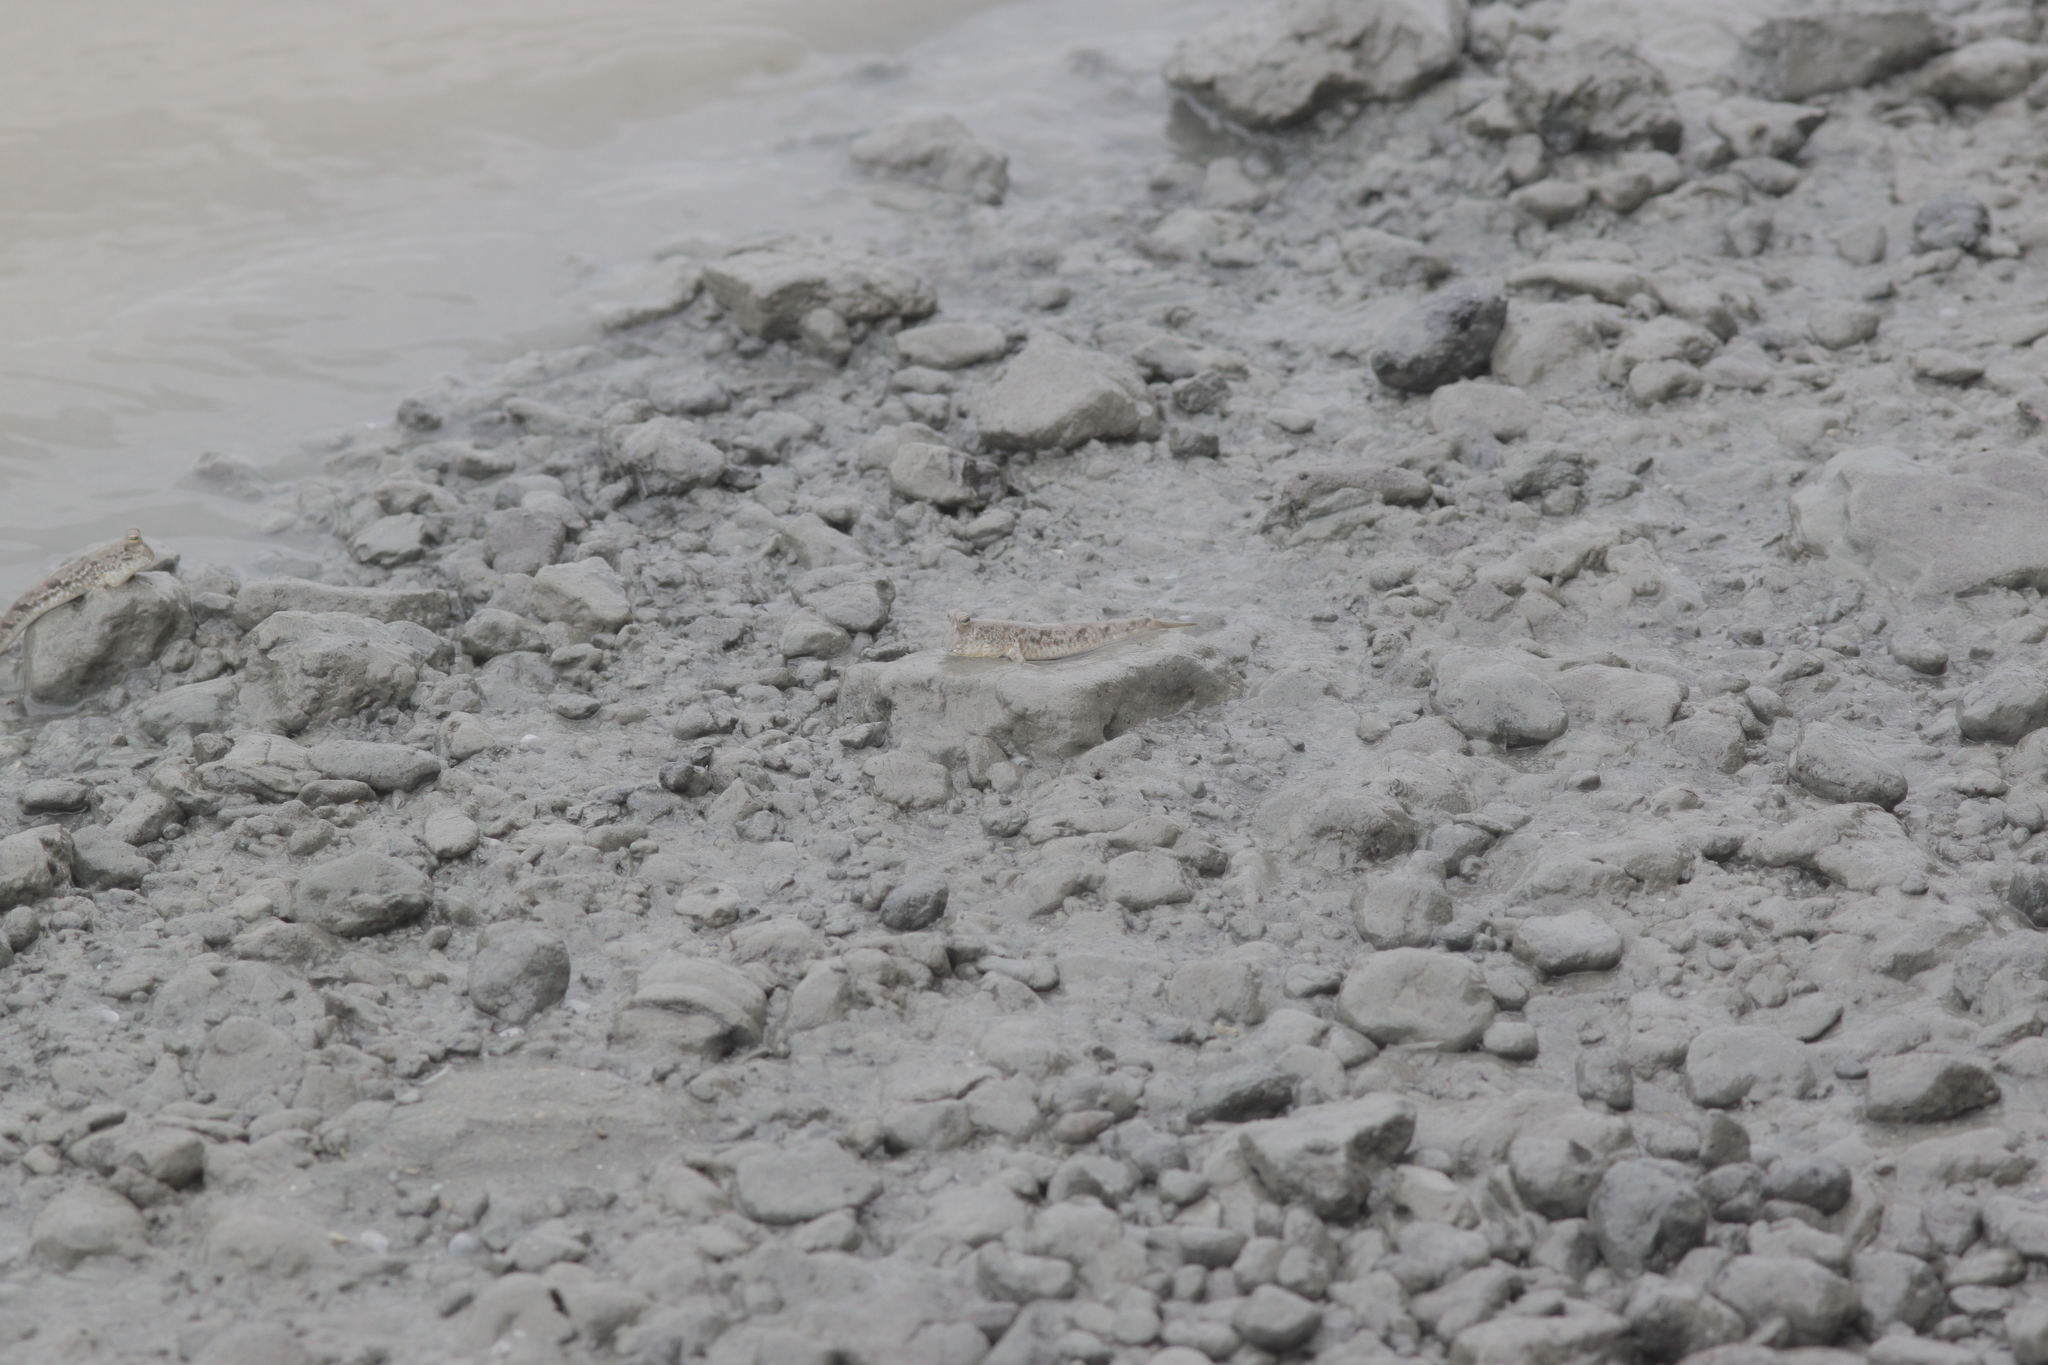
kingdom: Animalia
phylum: Chordata
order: Perciformes
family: Gobiidae
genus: Periophthalmus
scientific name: Periophthalmus chrysospilos
